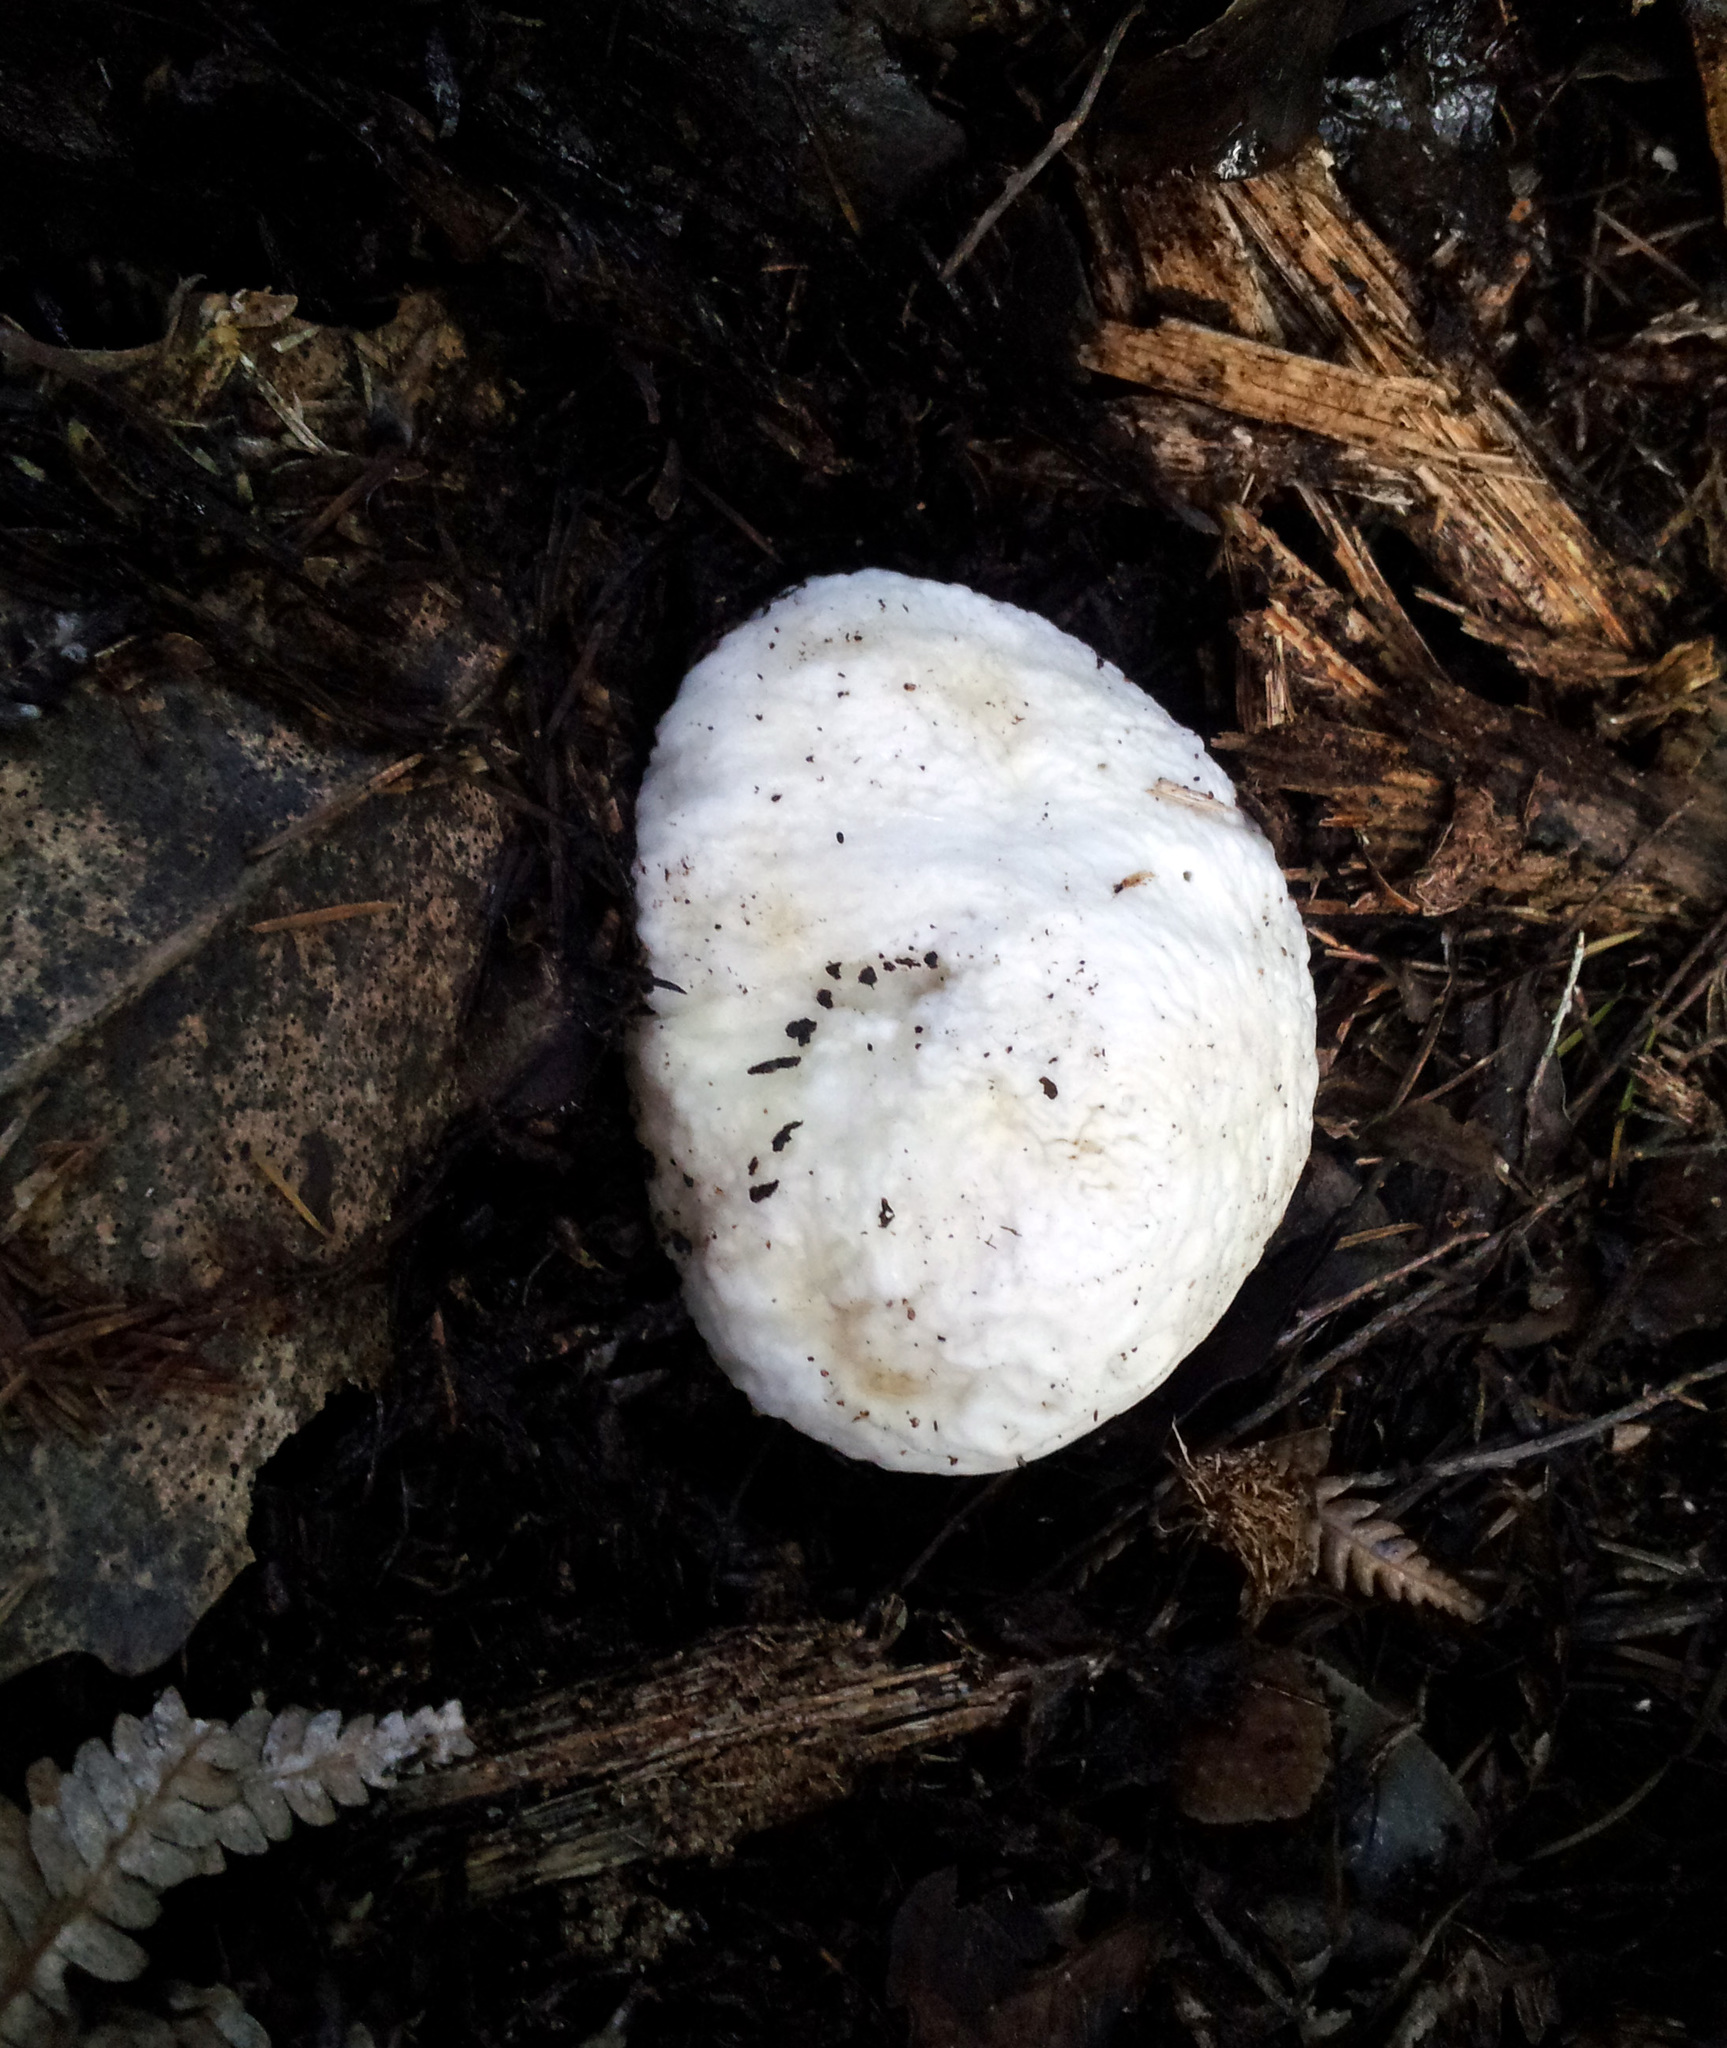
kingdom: Fungi
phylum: Basidiomycota
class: Agaricomycetes
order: Boletales
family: Boletaceae
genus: Boletus
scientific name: Boletus semigastroideus
